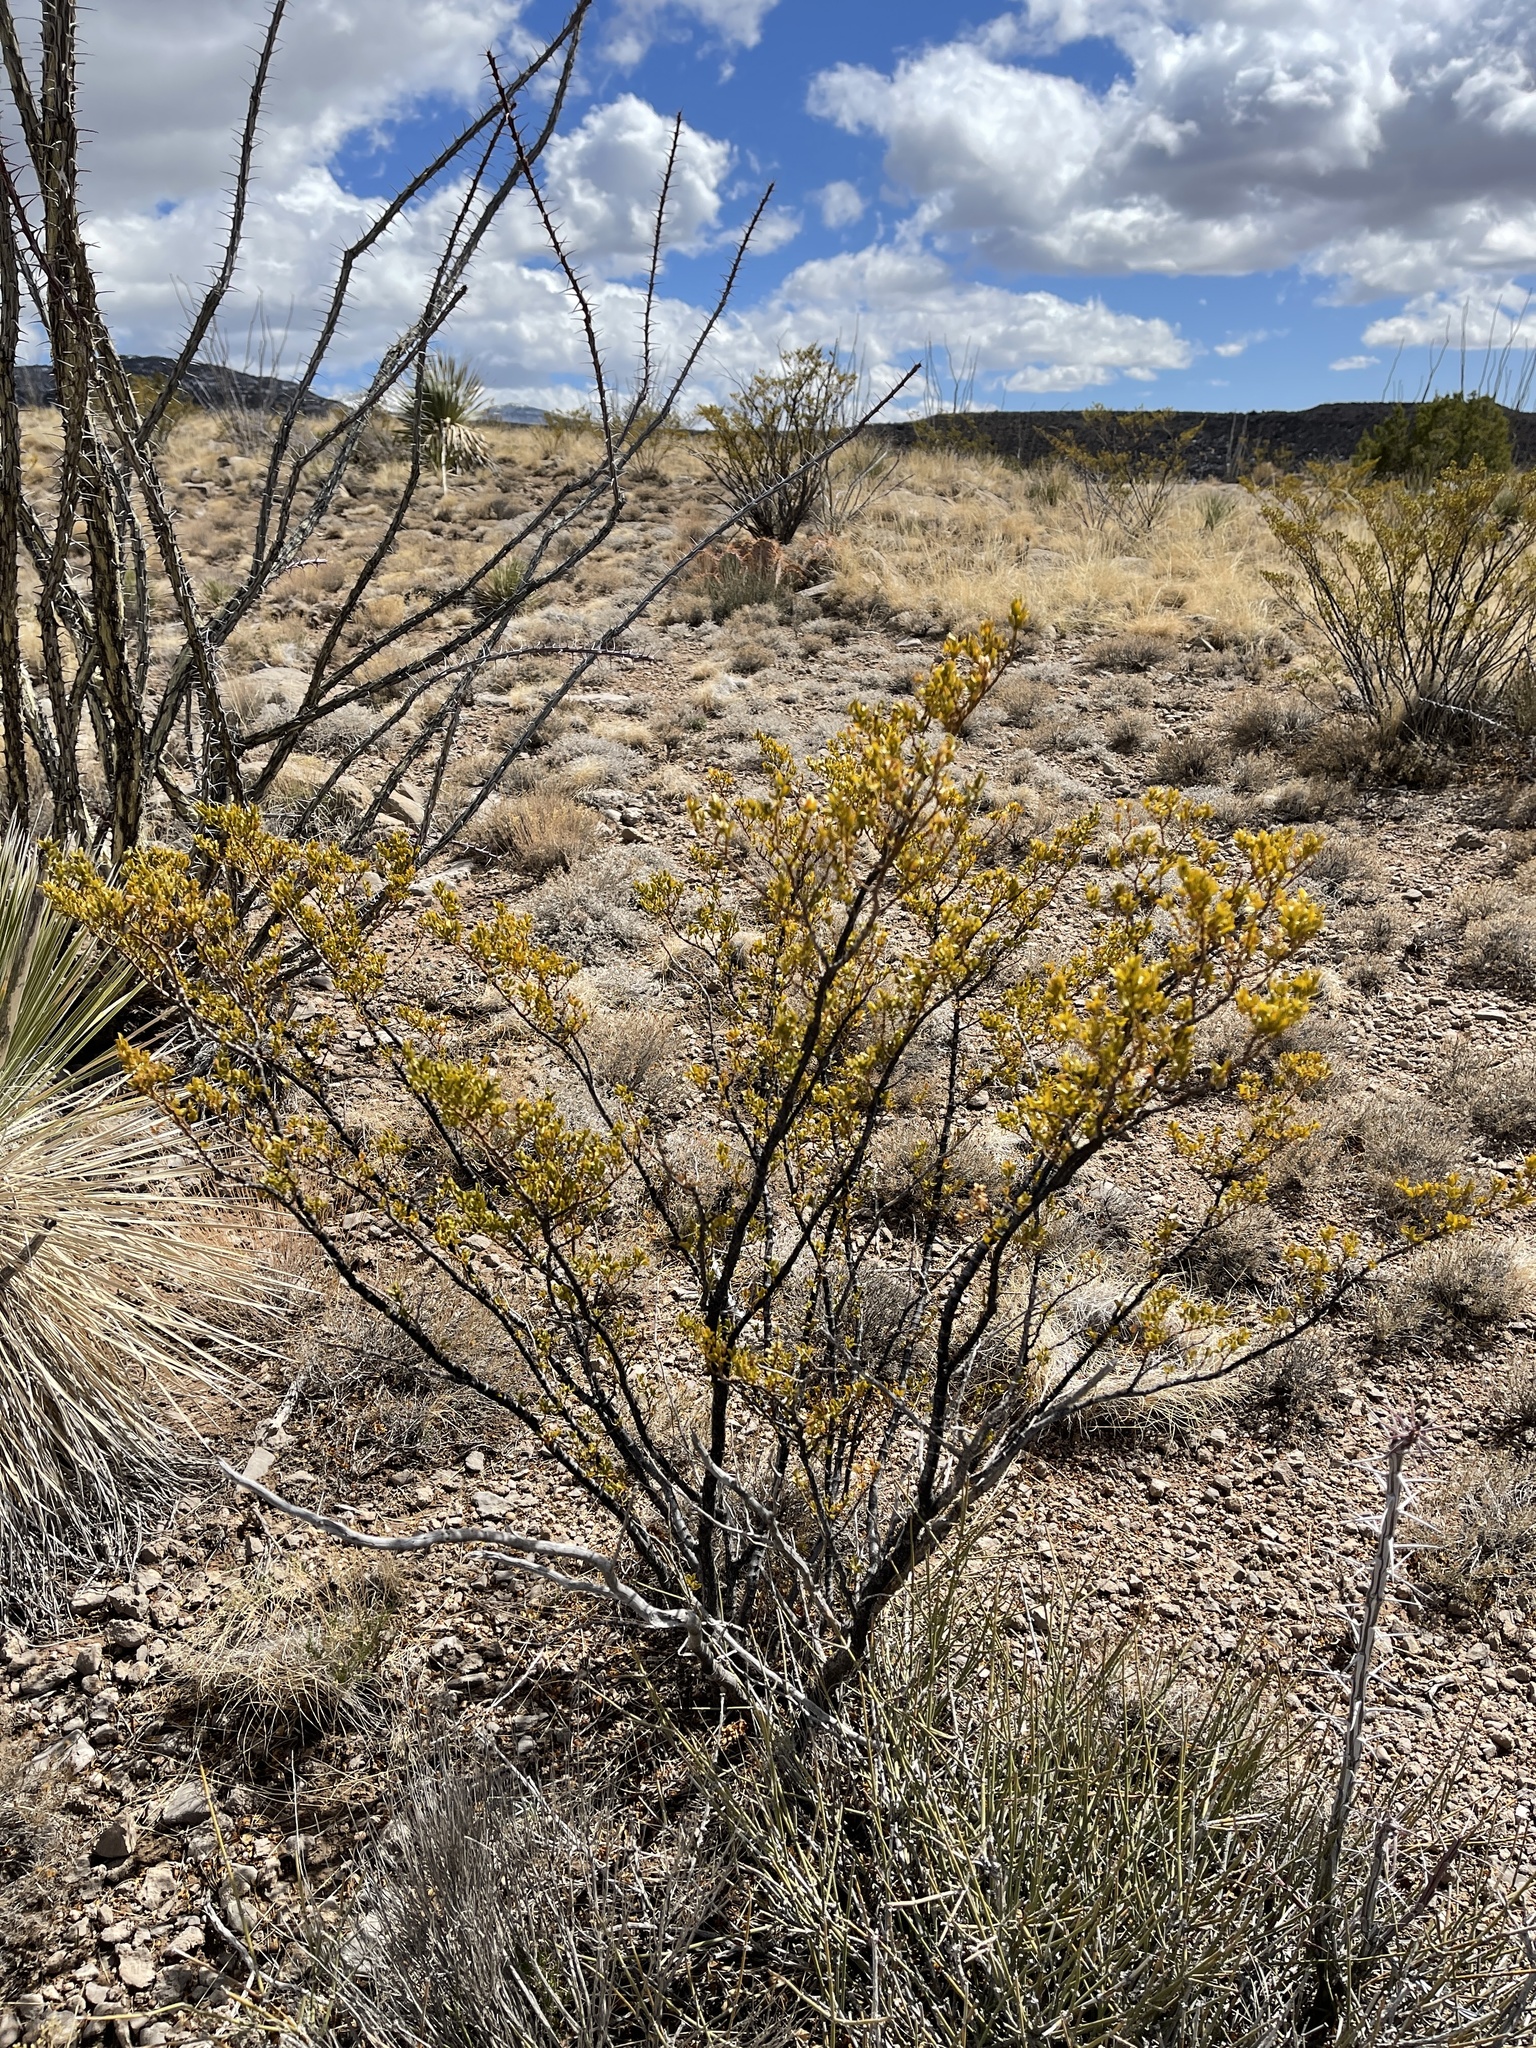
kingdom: Plantae
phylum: Tracheophyta
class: Magnoliopsida
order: Zygophyllales
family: Zygophyllaceae
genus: Larrea
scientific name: Larrea tridentata
